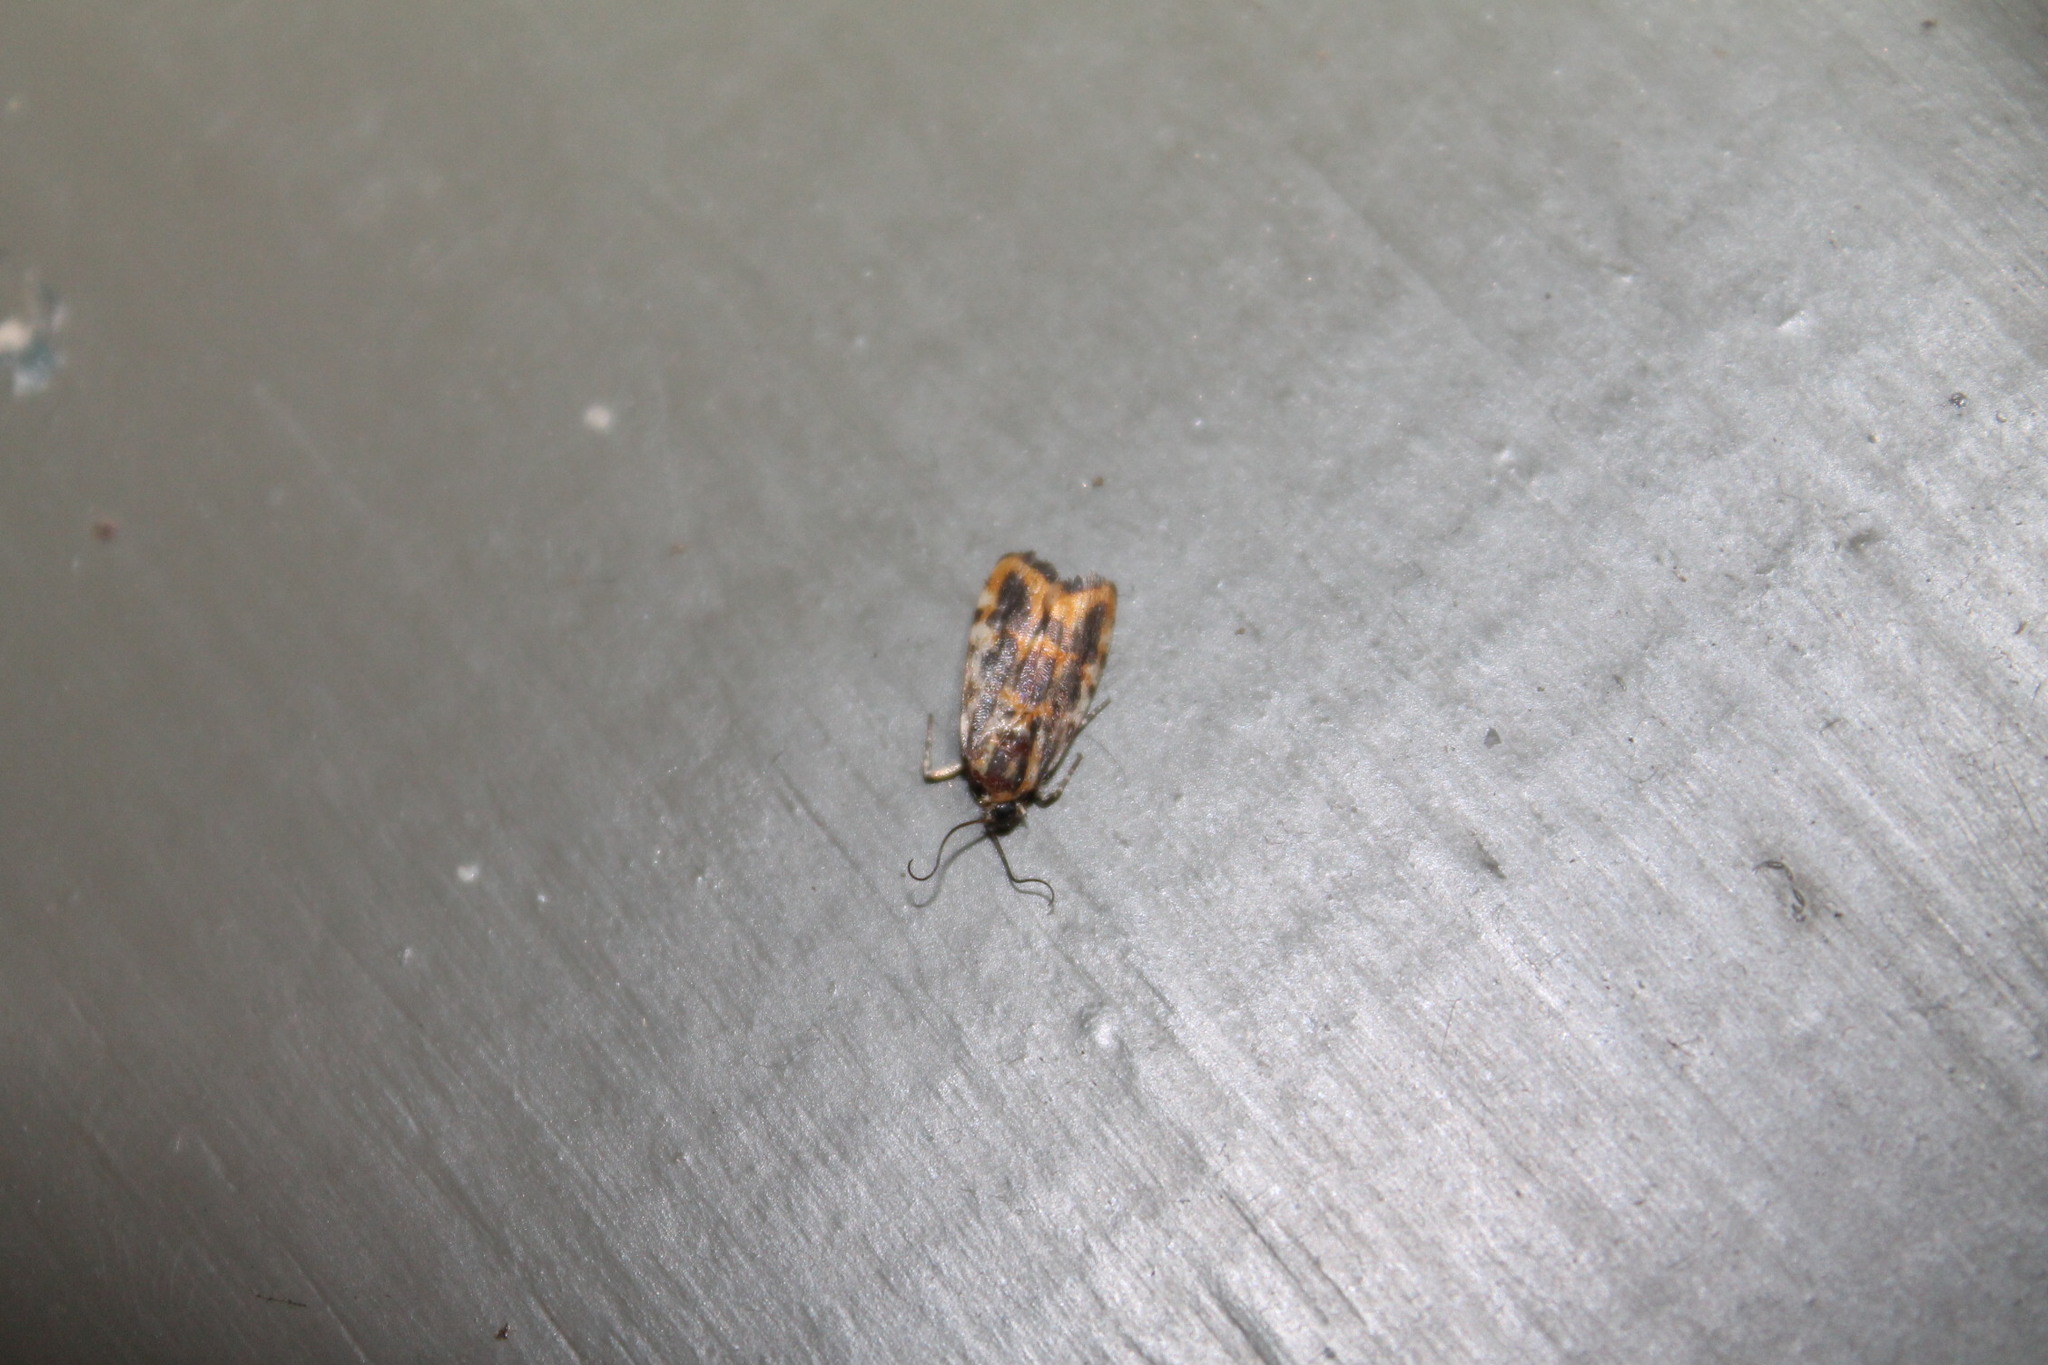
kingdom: Animalia
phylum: Arthropoda
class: Insecta
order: Lepidoptera
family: Noctuidae
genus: Acontia
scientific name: Acontia leo
